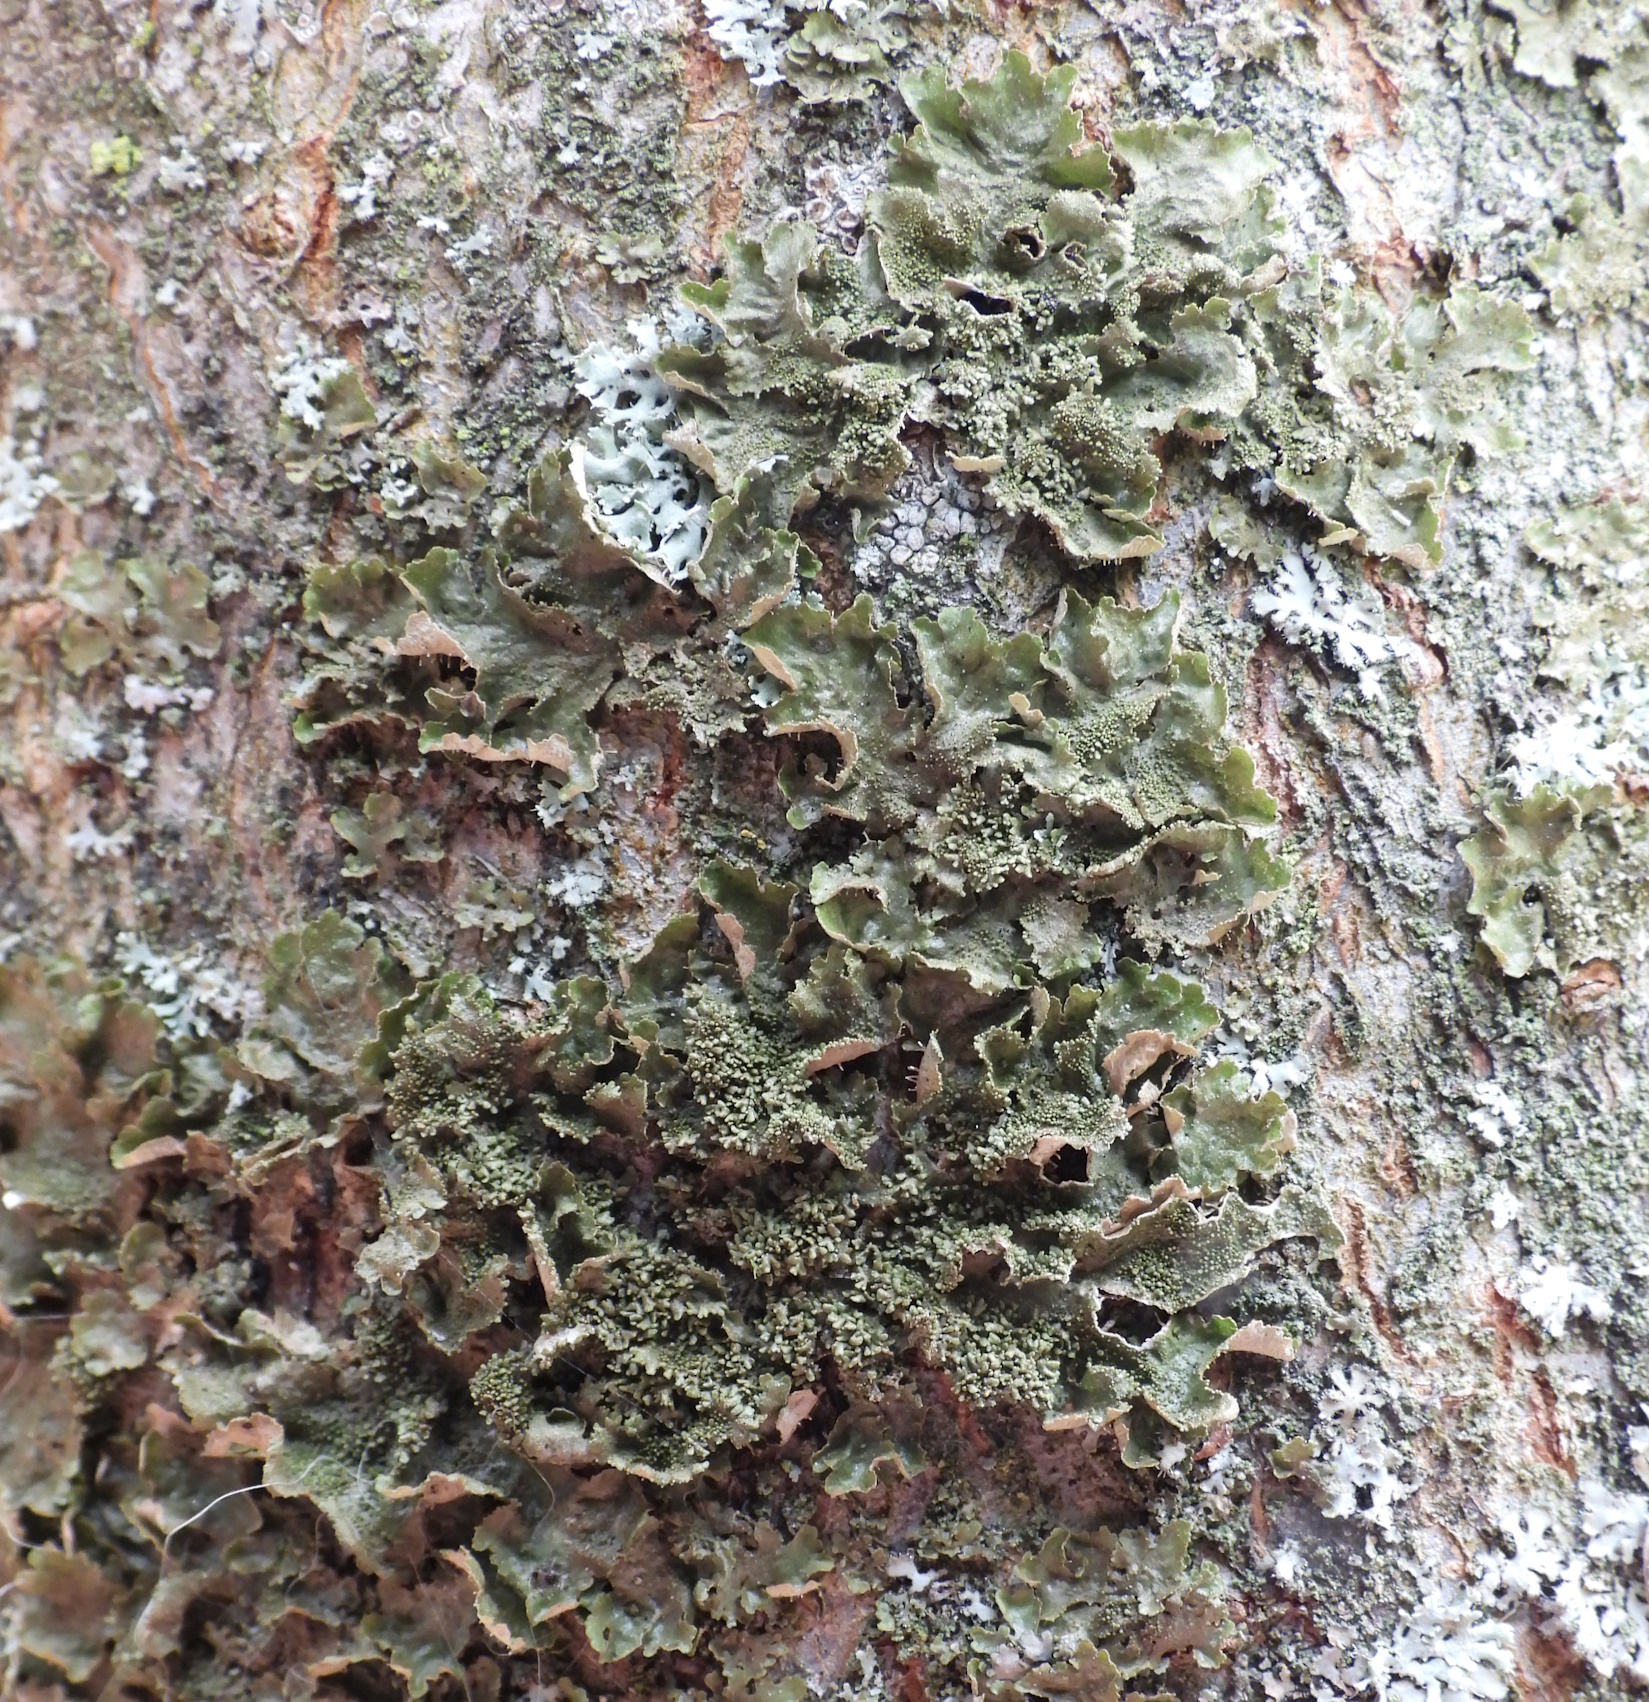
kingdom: Fungi
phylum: Ascomycota
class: Lecanoromycetes
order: Lecanorales
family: Parmeliaceae
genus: Melanohalea
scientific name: Melanohalea exasperatula
